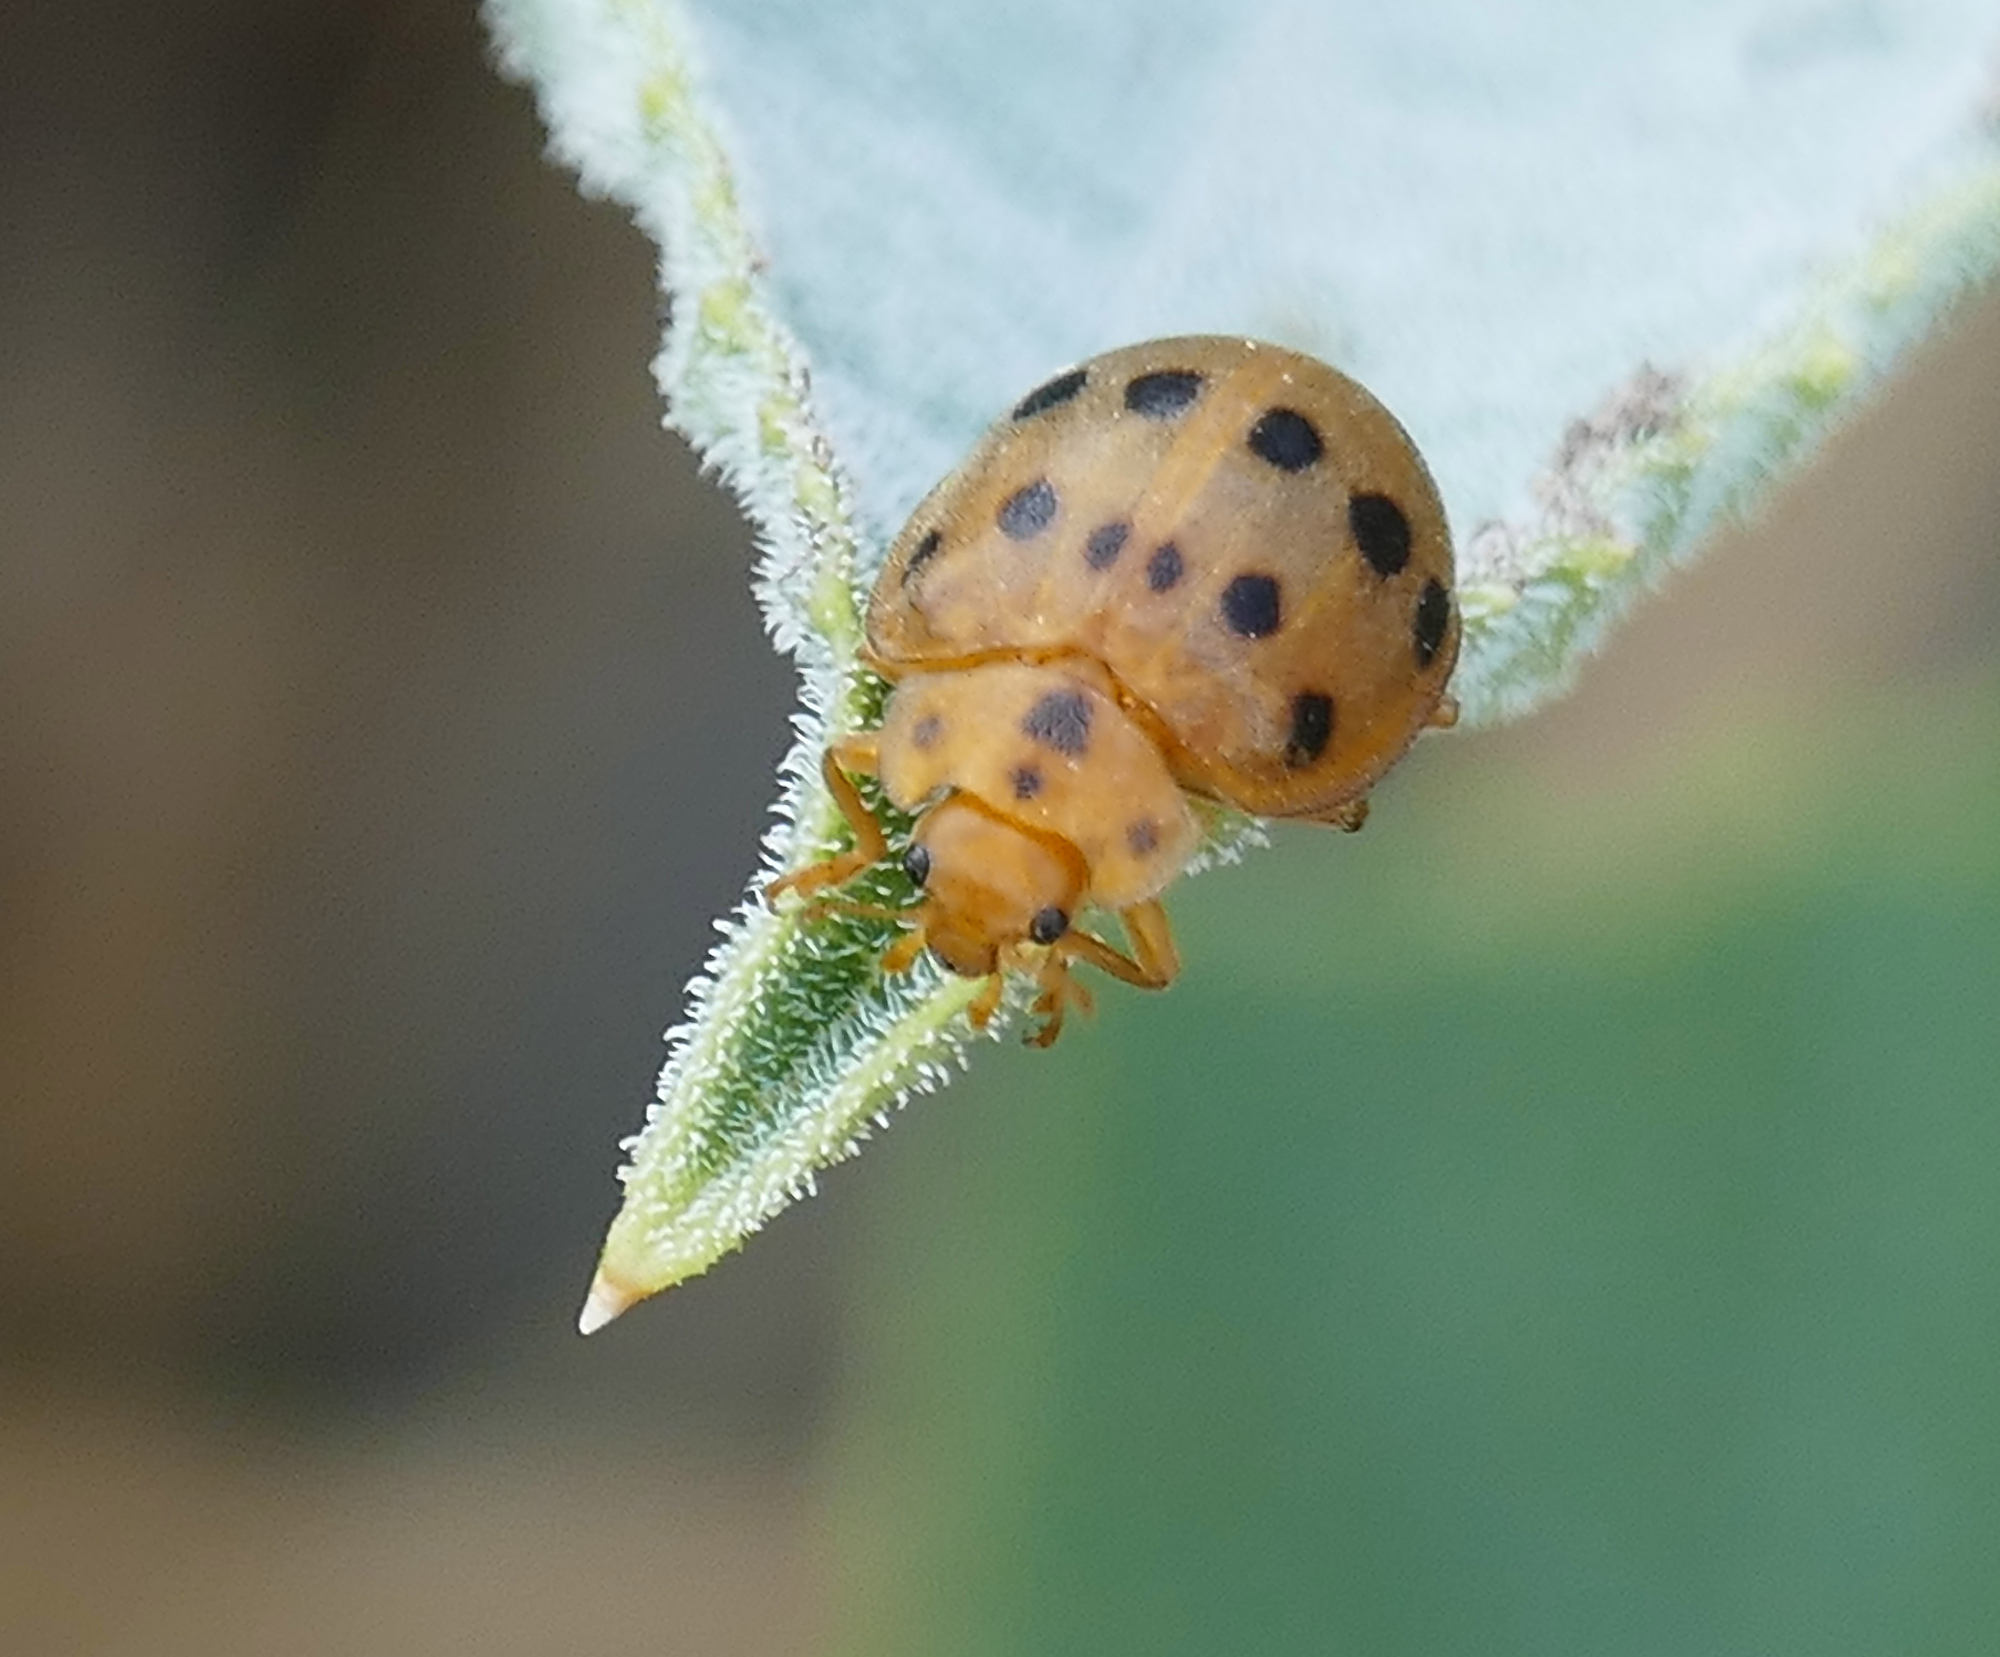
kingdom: Animalia
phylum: Arthropoda
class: Insecta
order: Coleoptera
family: Coccinellidae
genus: Epilachna
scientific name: Epilachna tredecimnotata
